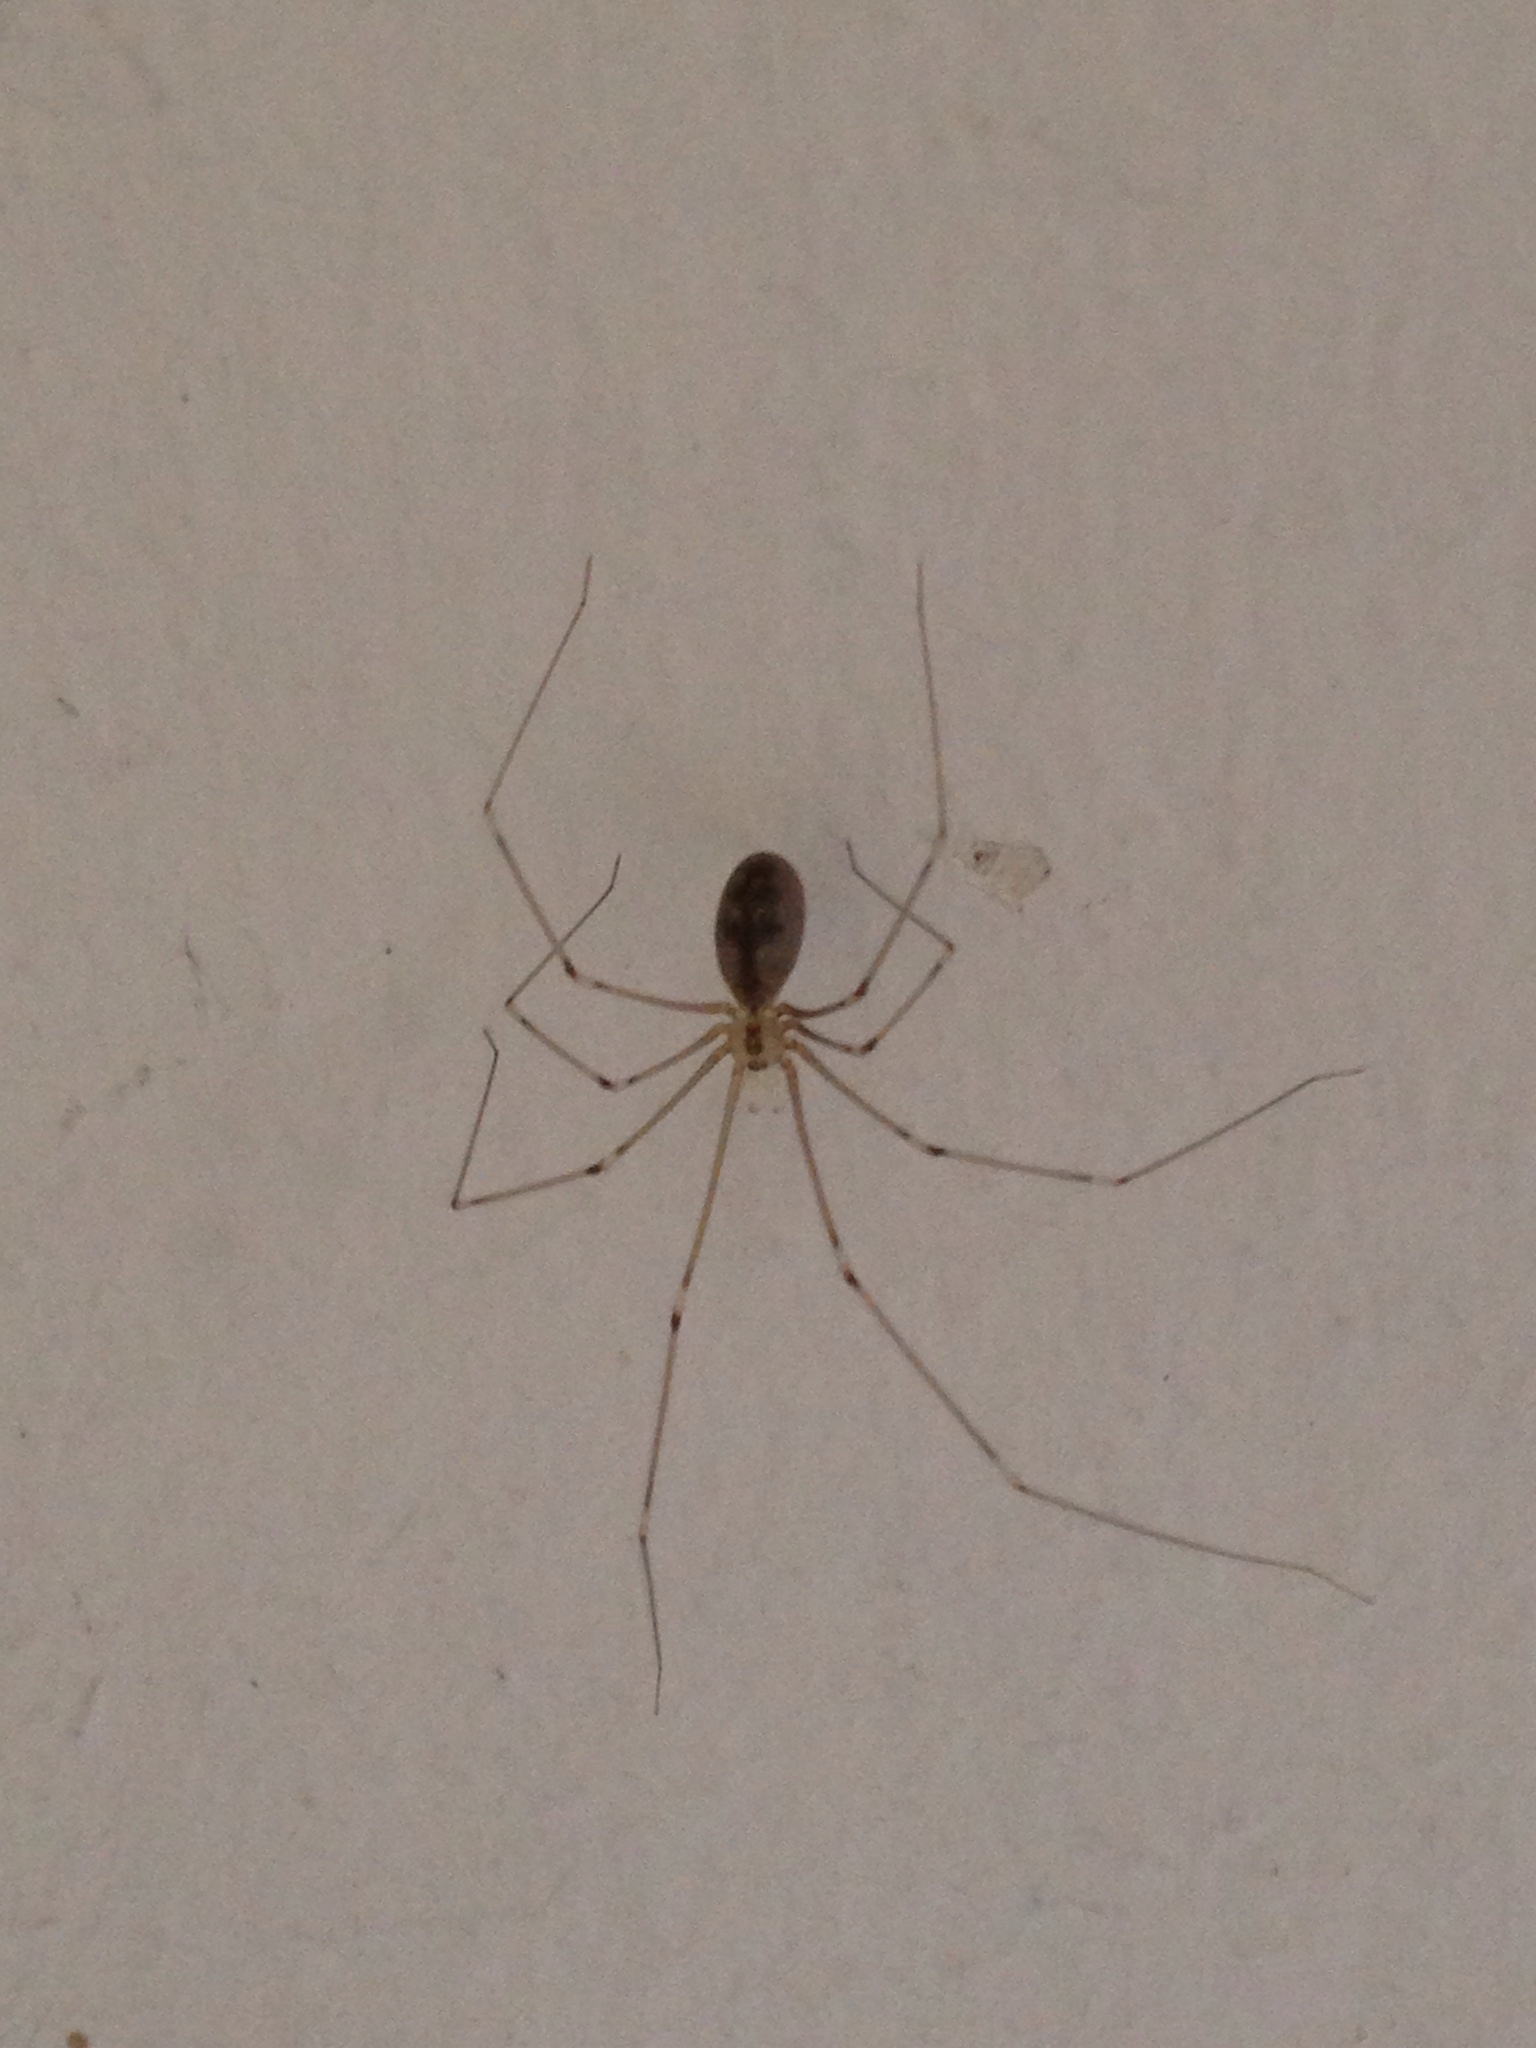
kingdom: Animalia
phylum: Arthropoda
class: Arachnida
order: Araneae
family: Pholcidae
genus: Pholcus
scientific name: Pholcus phalangioides
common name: Longbodied cellar spider
